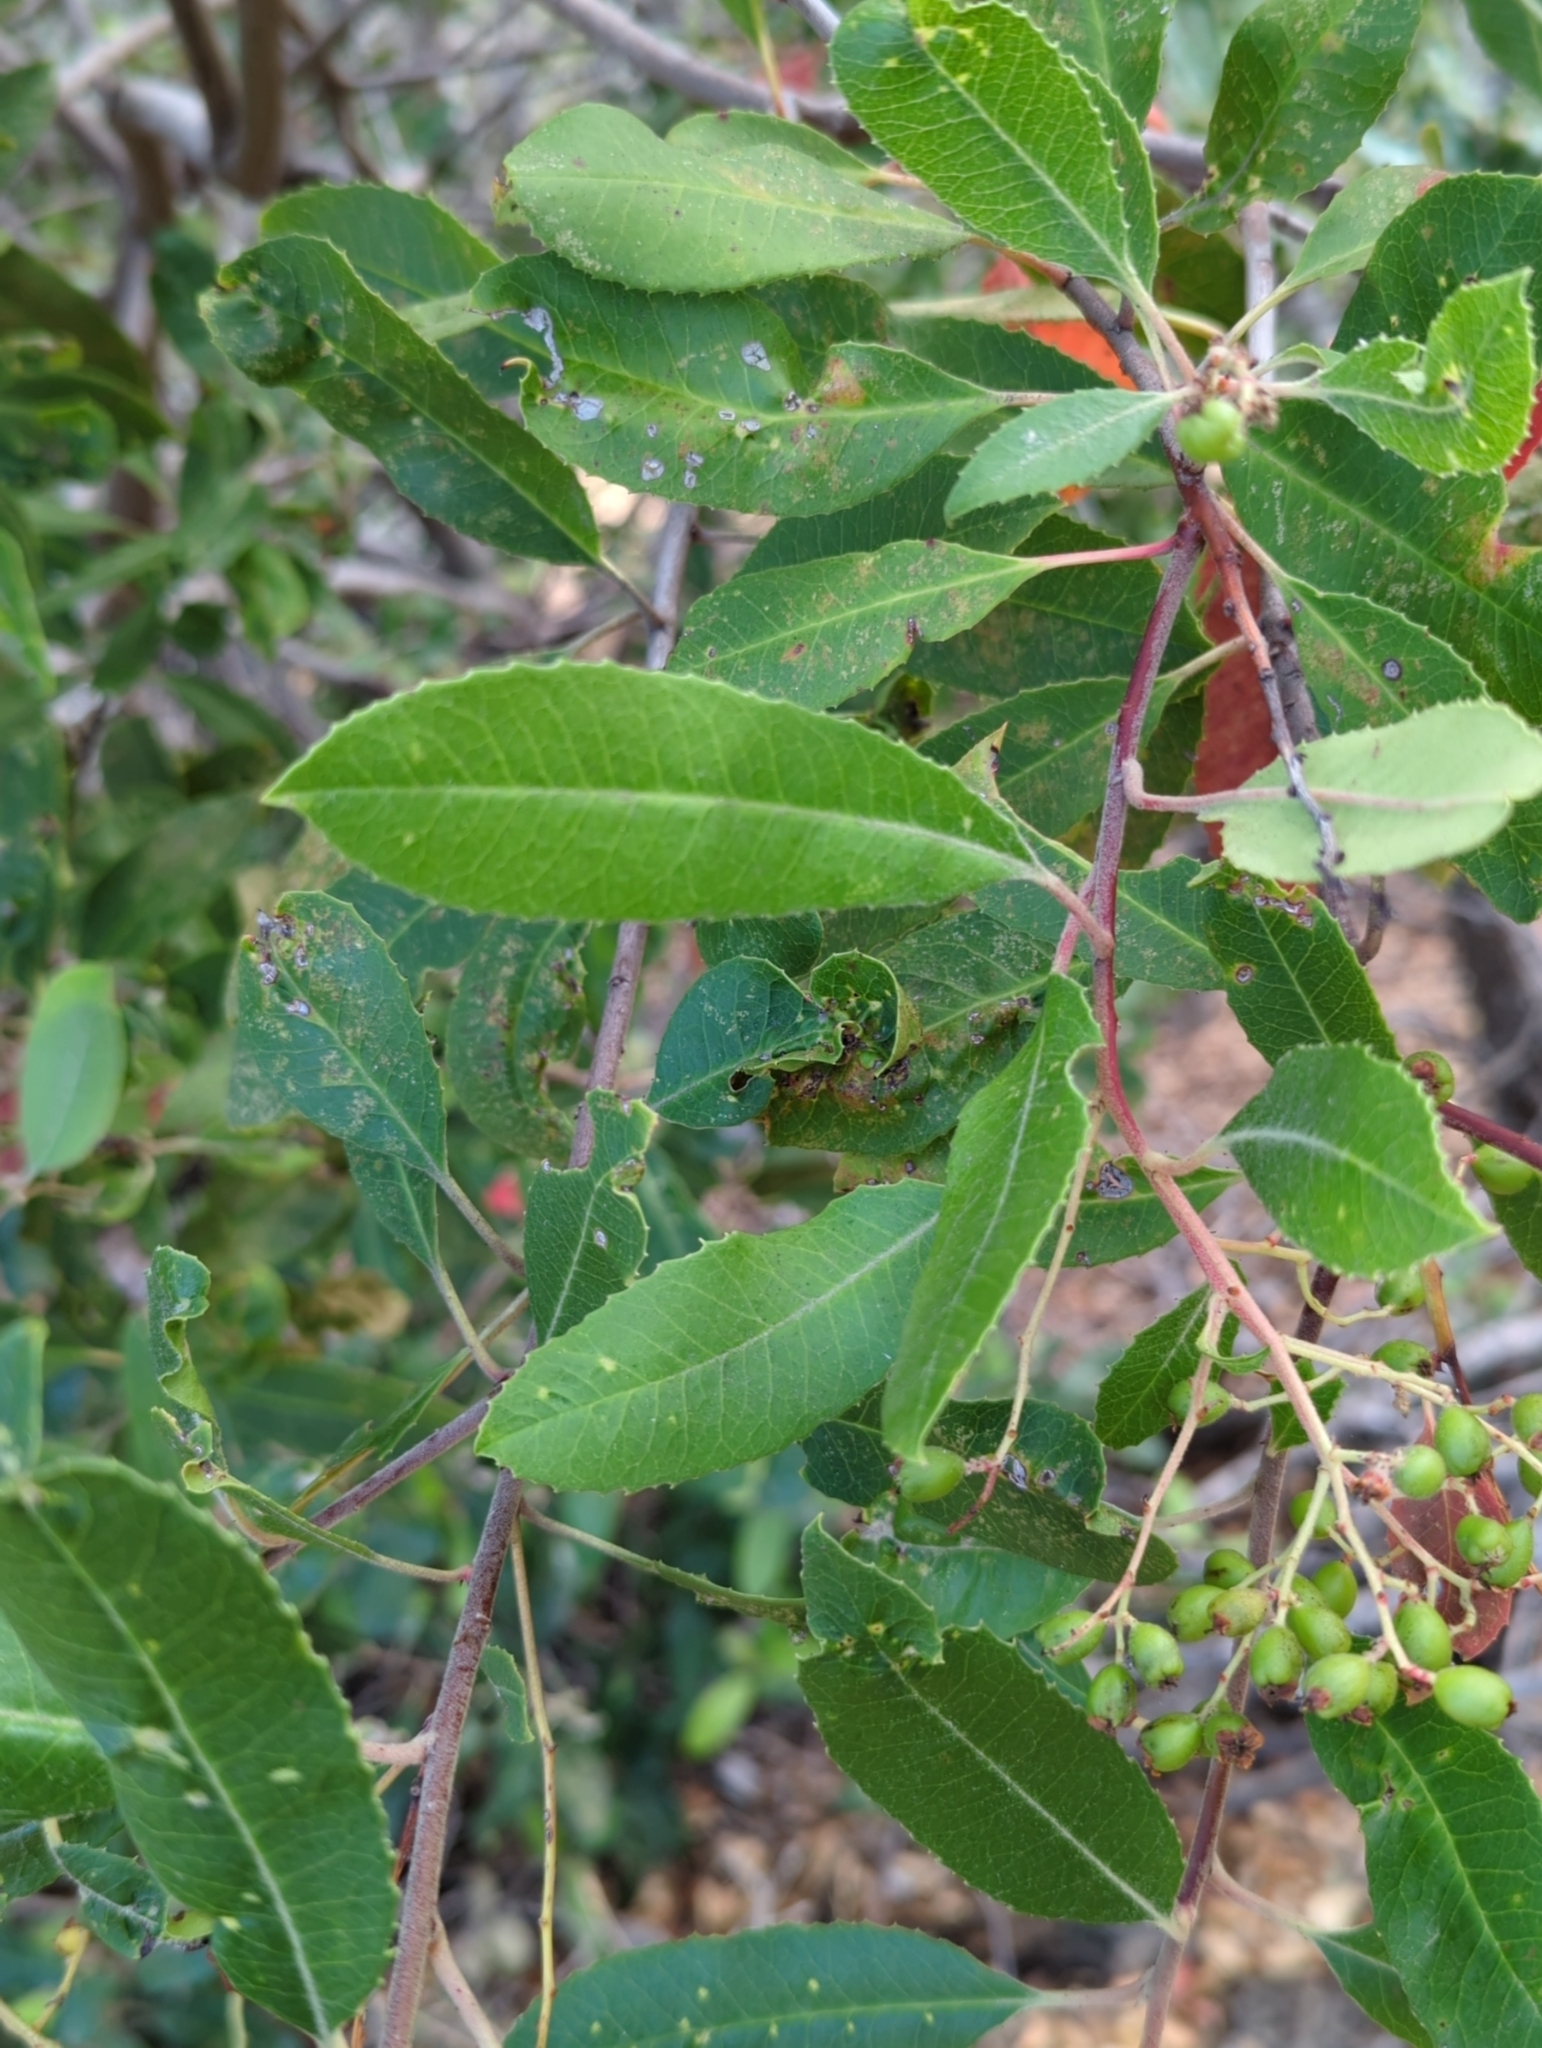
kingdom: Plantae
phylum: Tracheophyta
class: Magnoliopsida
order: Rosales
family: Rosaceae
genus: Heteromeles
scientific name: Heteromeles arbutifolia
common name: California-holly
